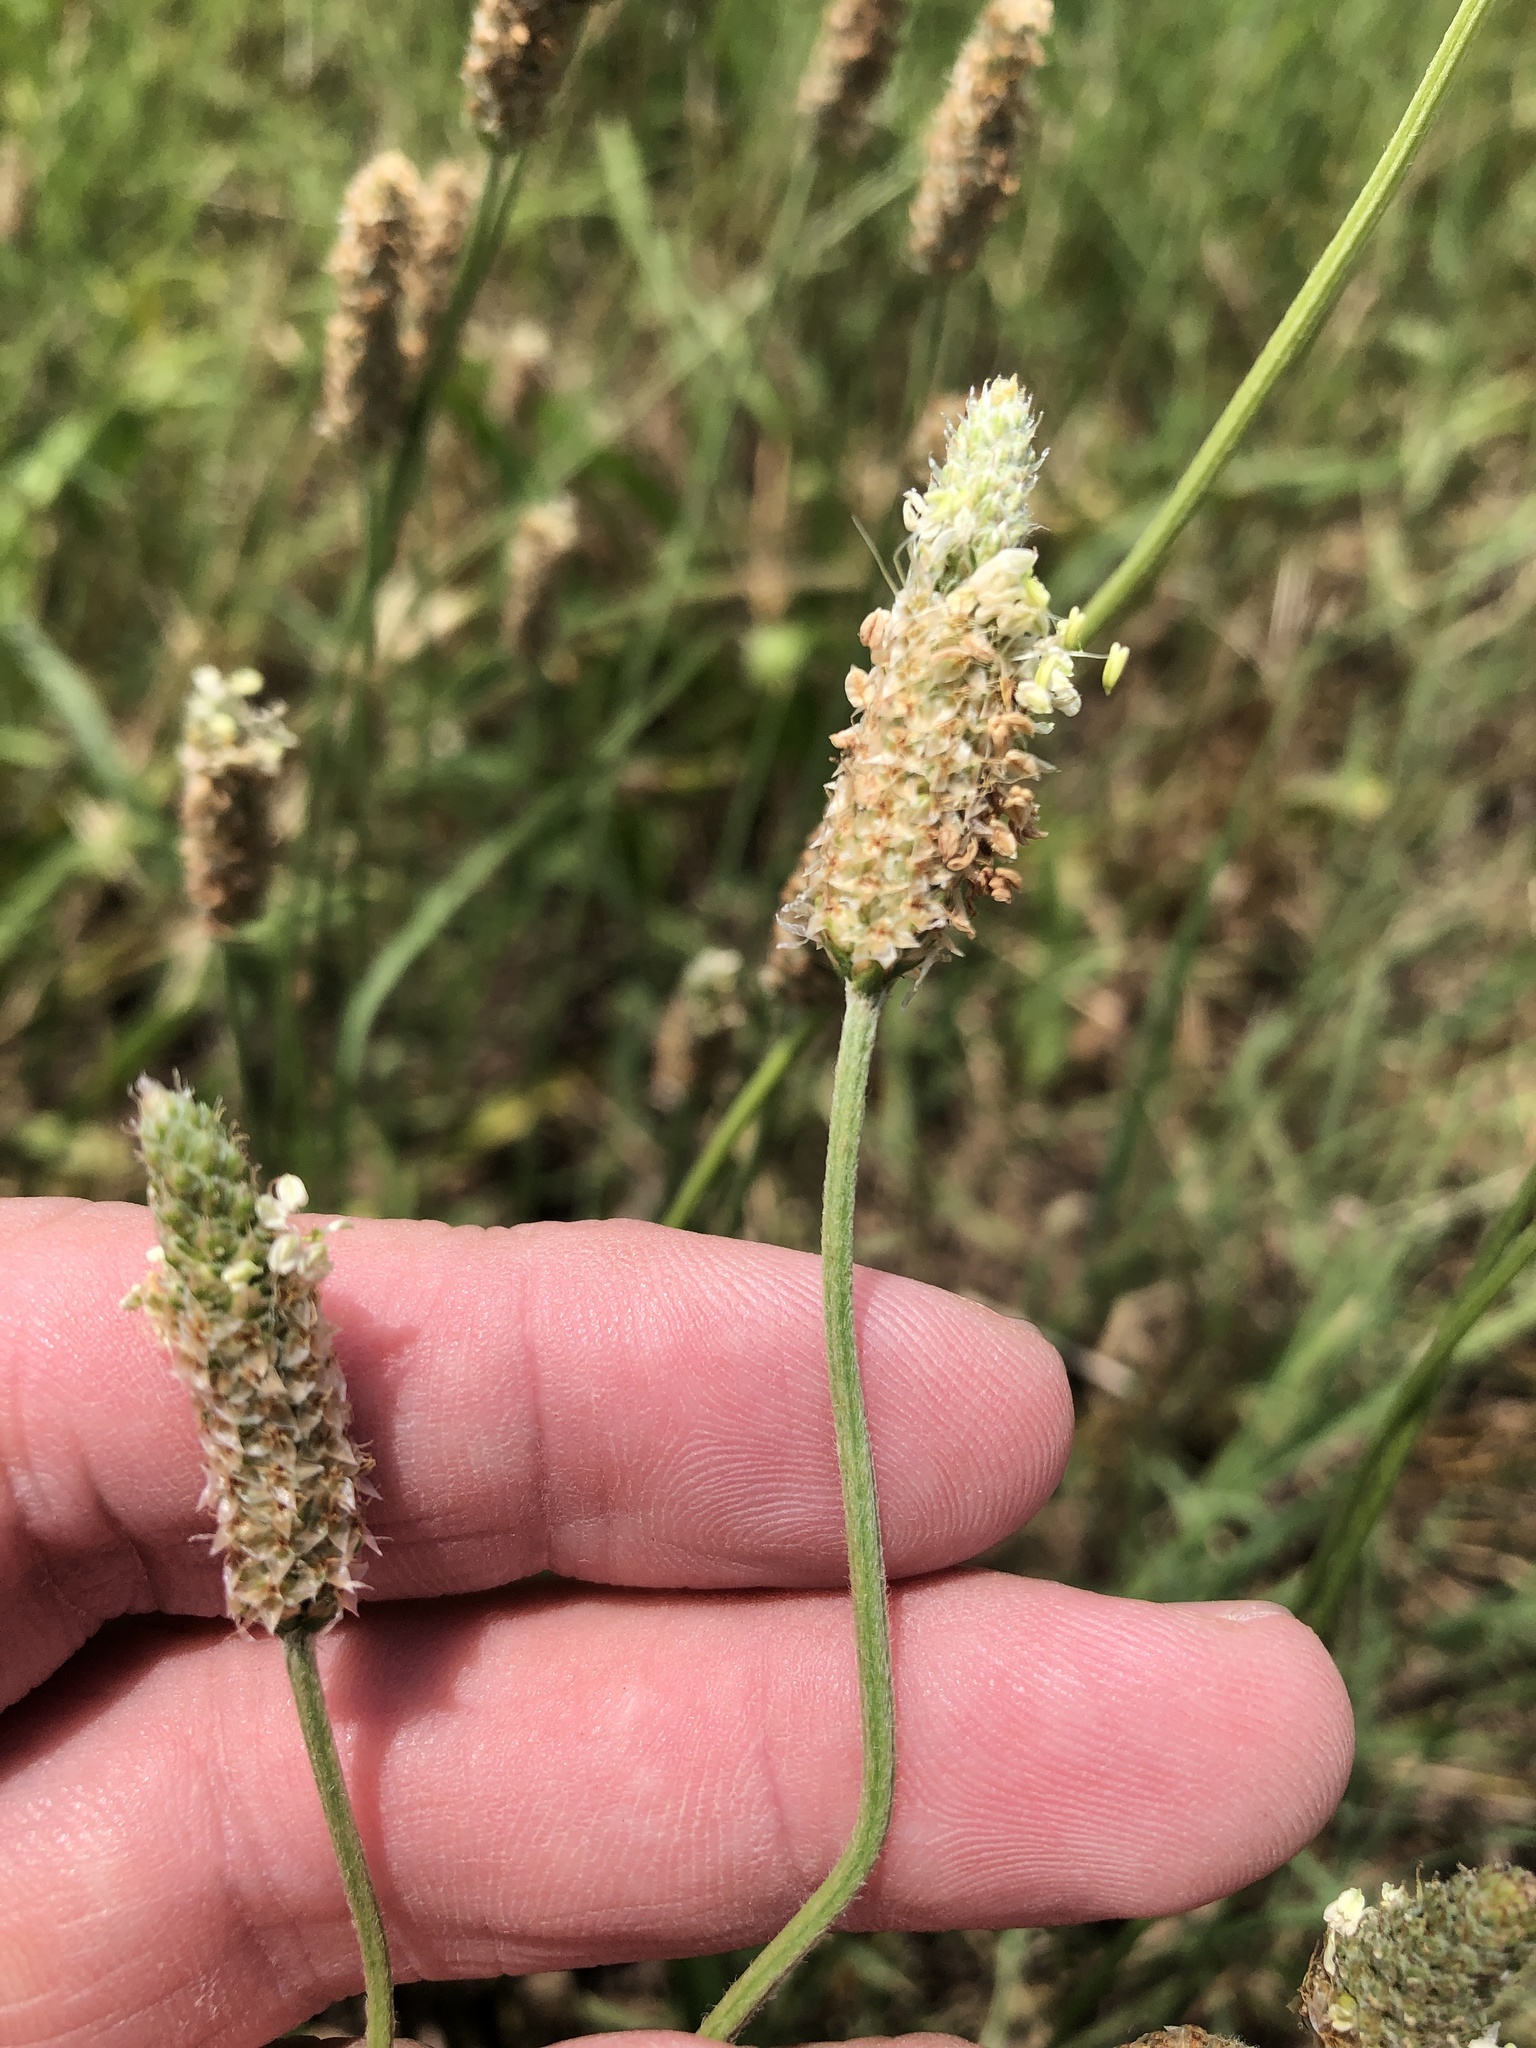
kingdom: Plantae
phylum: Tracheophyta
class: Magnoliopsida
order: Lamiales
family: Plantaginaceae
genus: Plantago
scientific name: Plantago lanceolata
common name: Ribwort plantain
